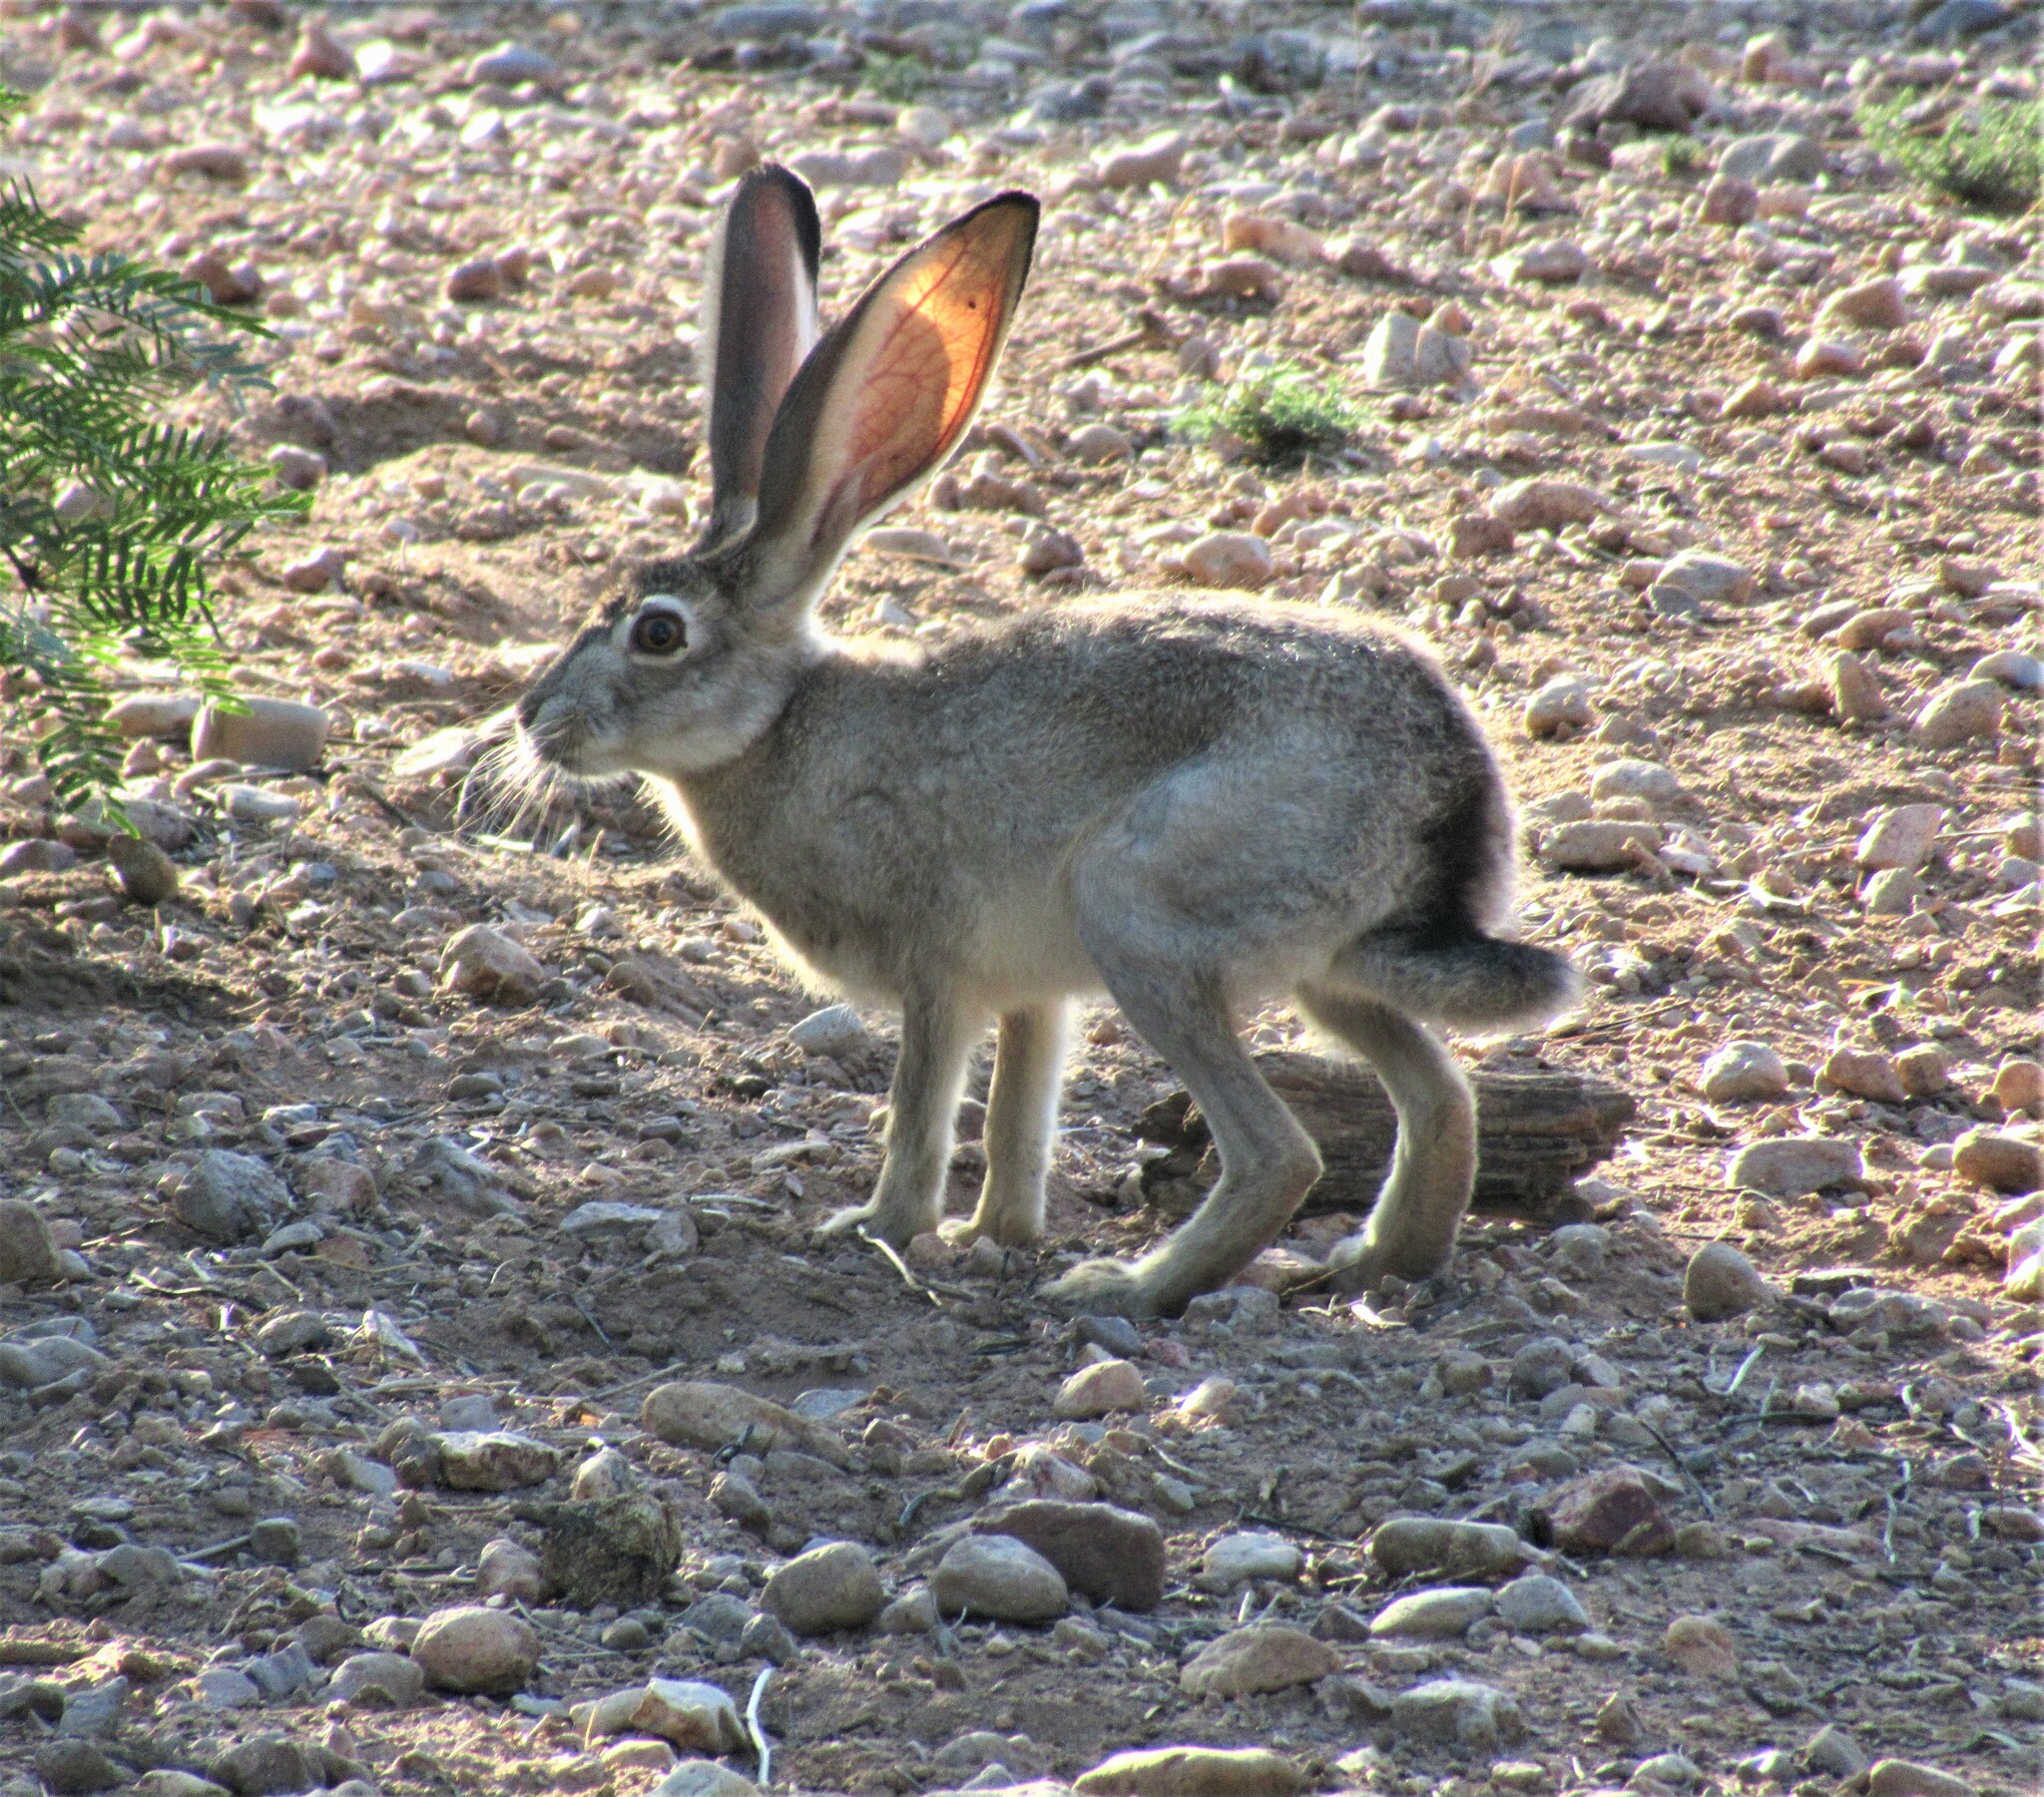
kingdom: Animalia
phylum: Chordata
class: Mammalia
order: Lagomorpha
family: Leporidae
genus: Lepus
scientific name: Lepus californicus
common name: Black-tailed jackrabbit
